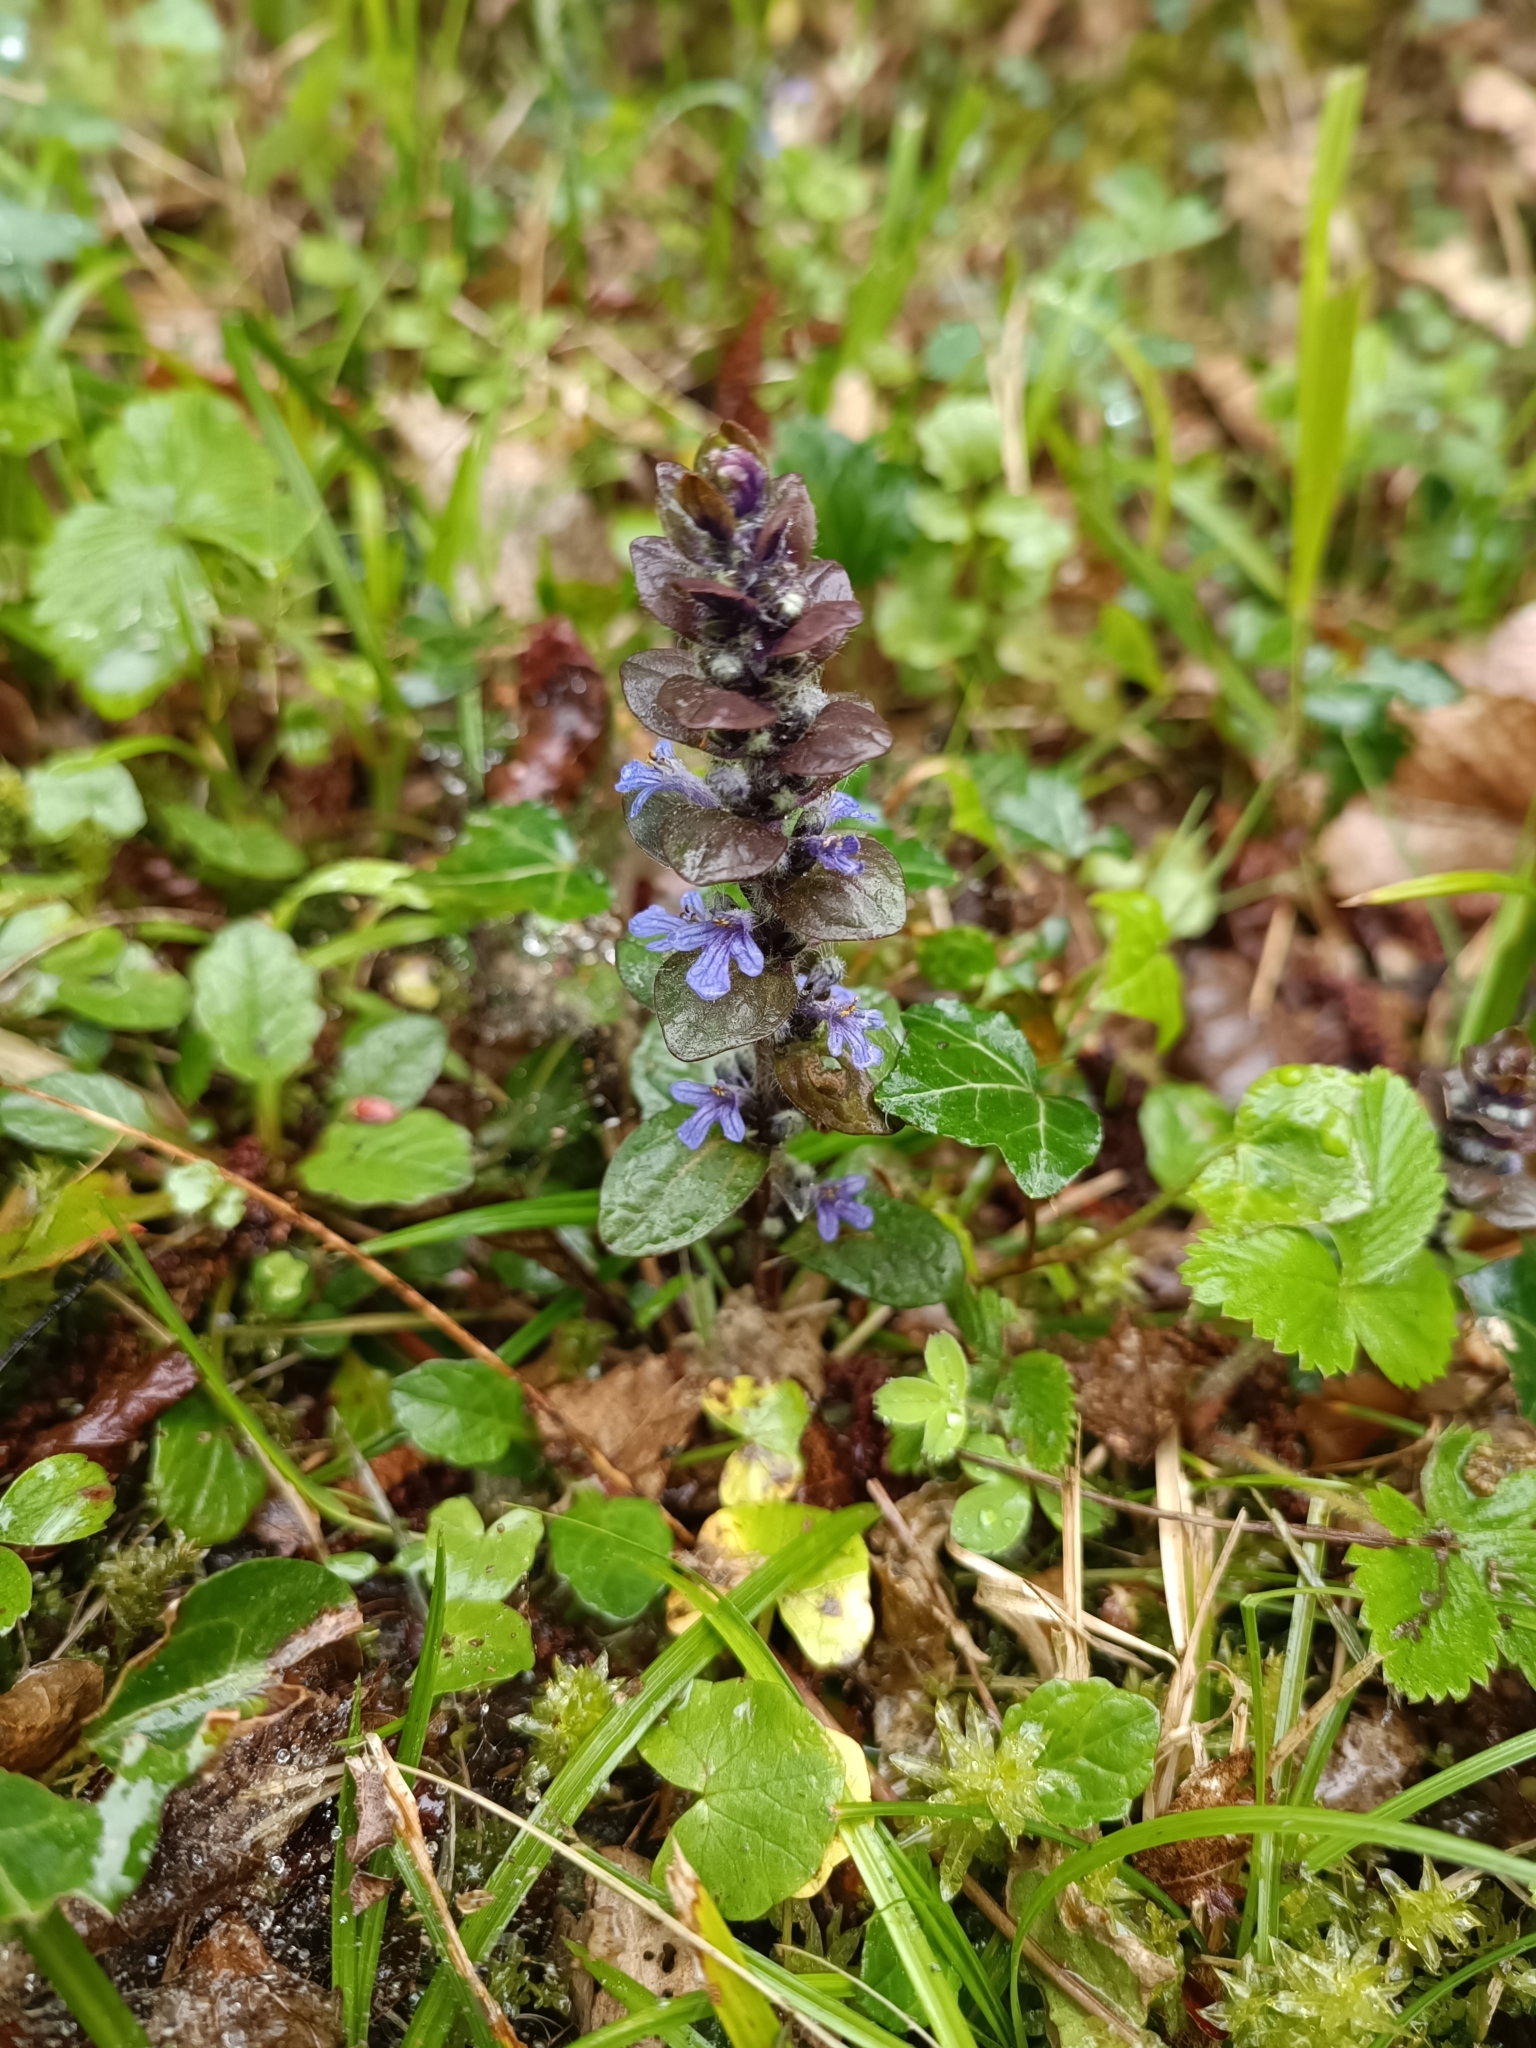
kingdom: Plantae
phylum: Tracheophyta
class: Magnoliopsida
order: Lamiales
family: Lamiaceae
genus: Ajuga
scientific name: Ajuga reptans
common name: Bugle
